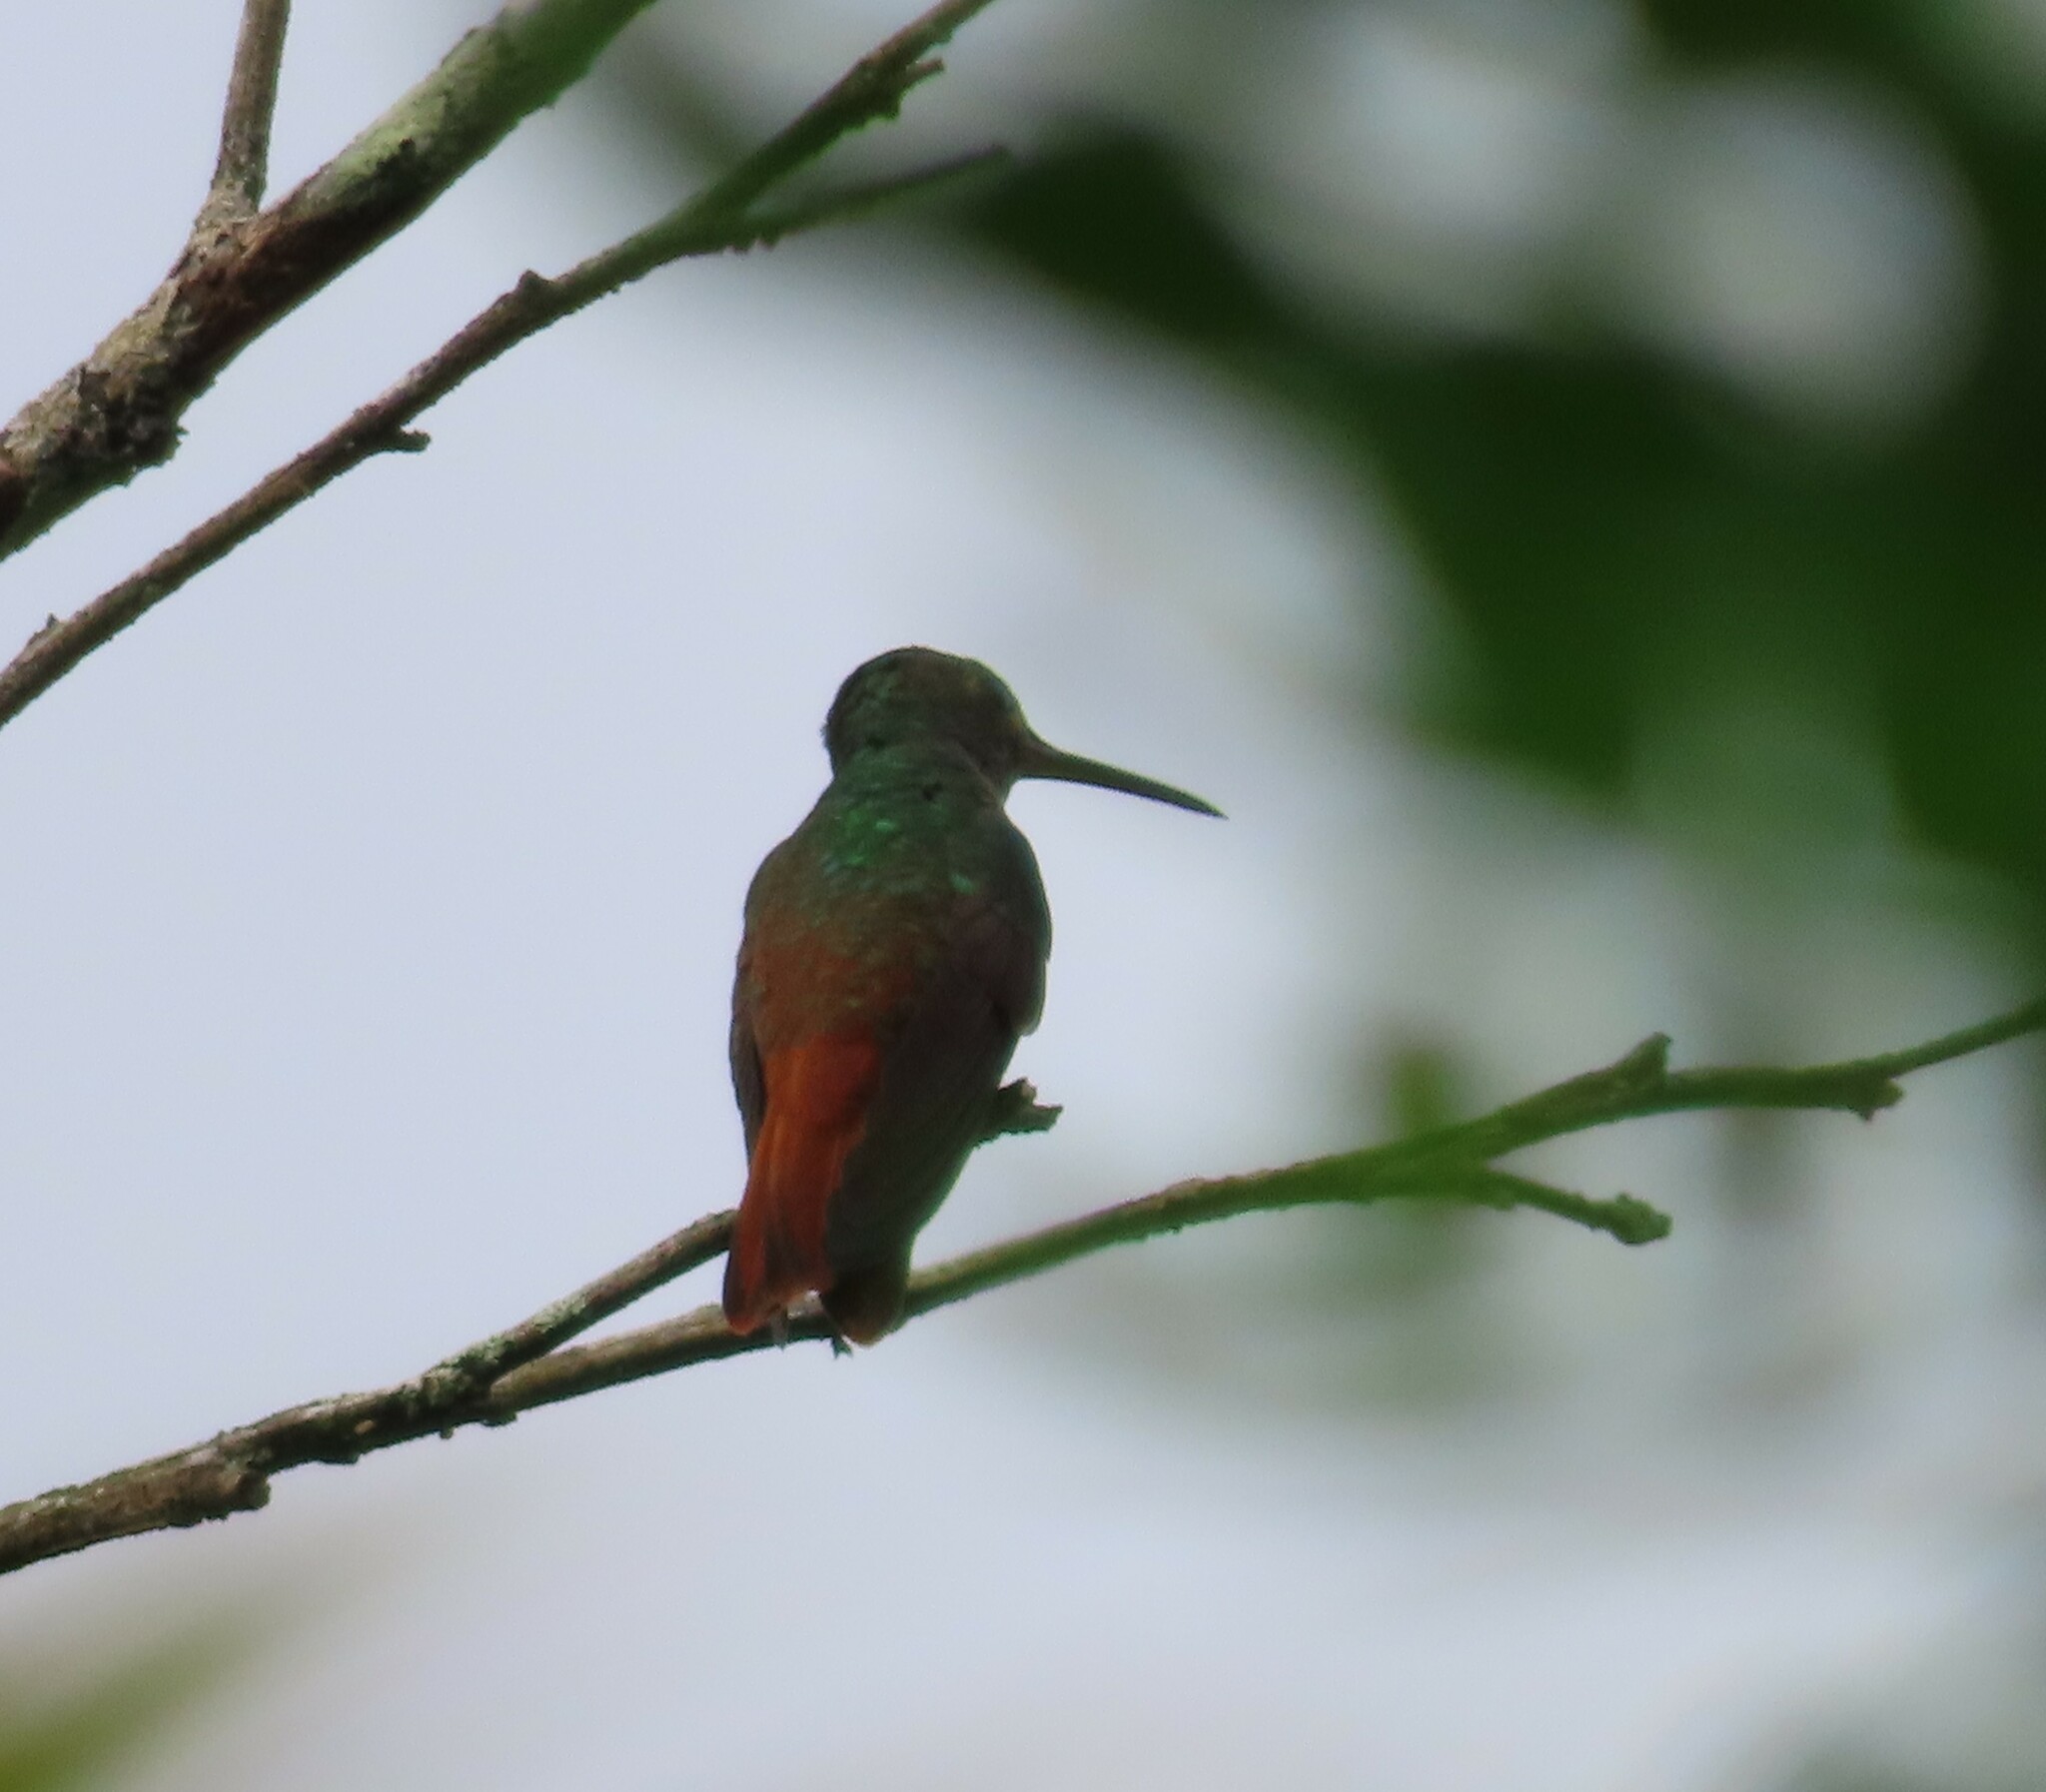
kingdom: Animalia
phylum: Chordata
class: Aves
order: Apodiformes
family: Trochilidae
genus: Amazilia
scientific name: Amazilia tzacatl
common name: Rufous-tailed hummingbird
